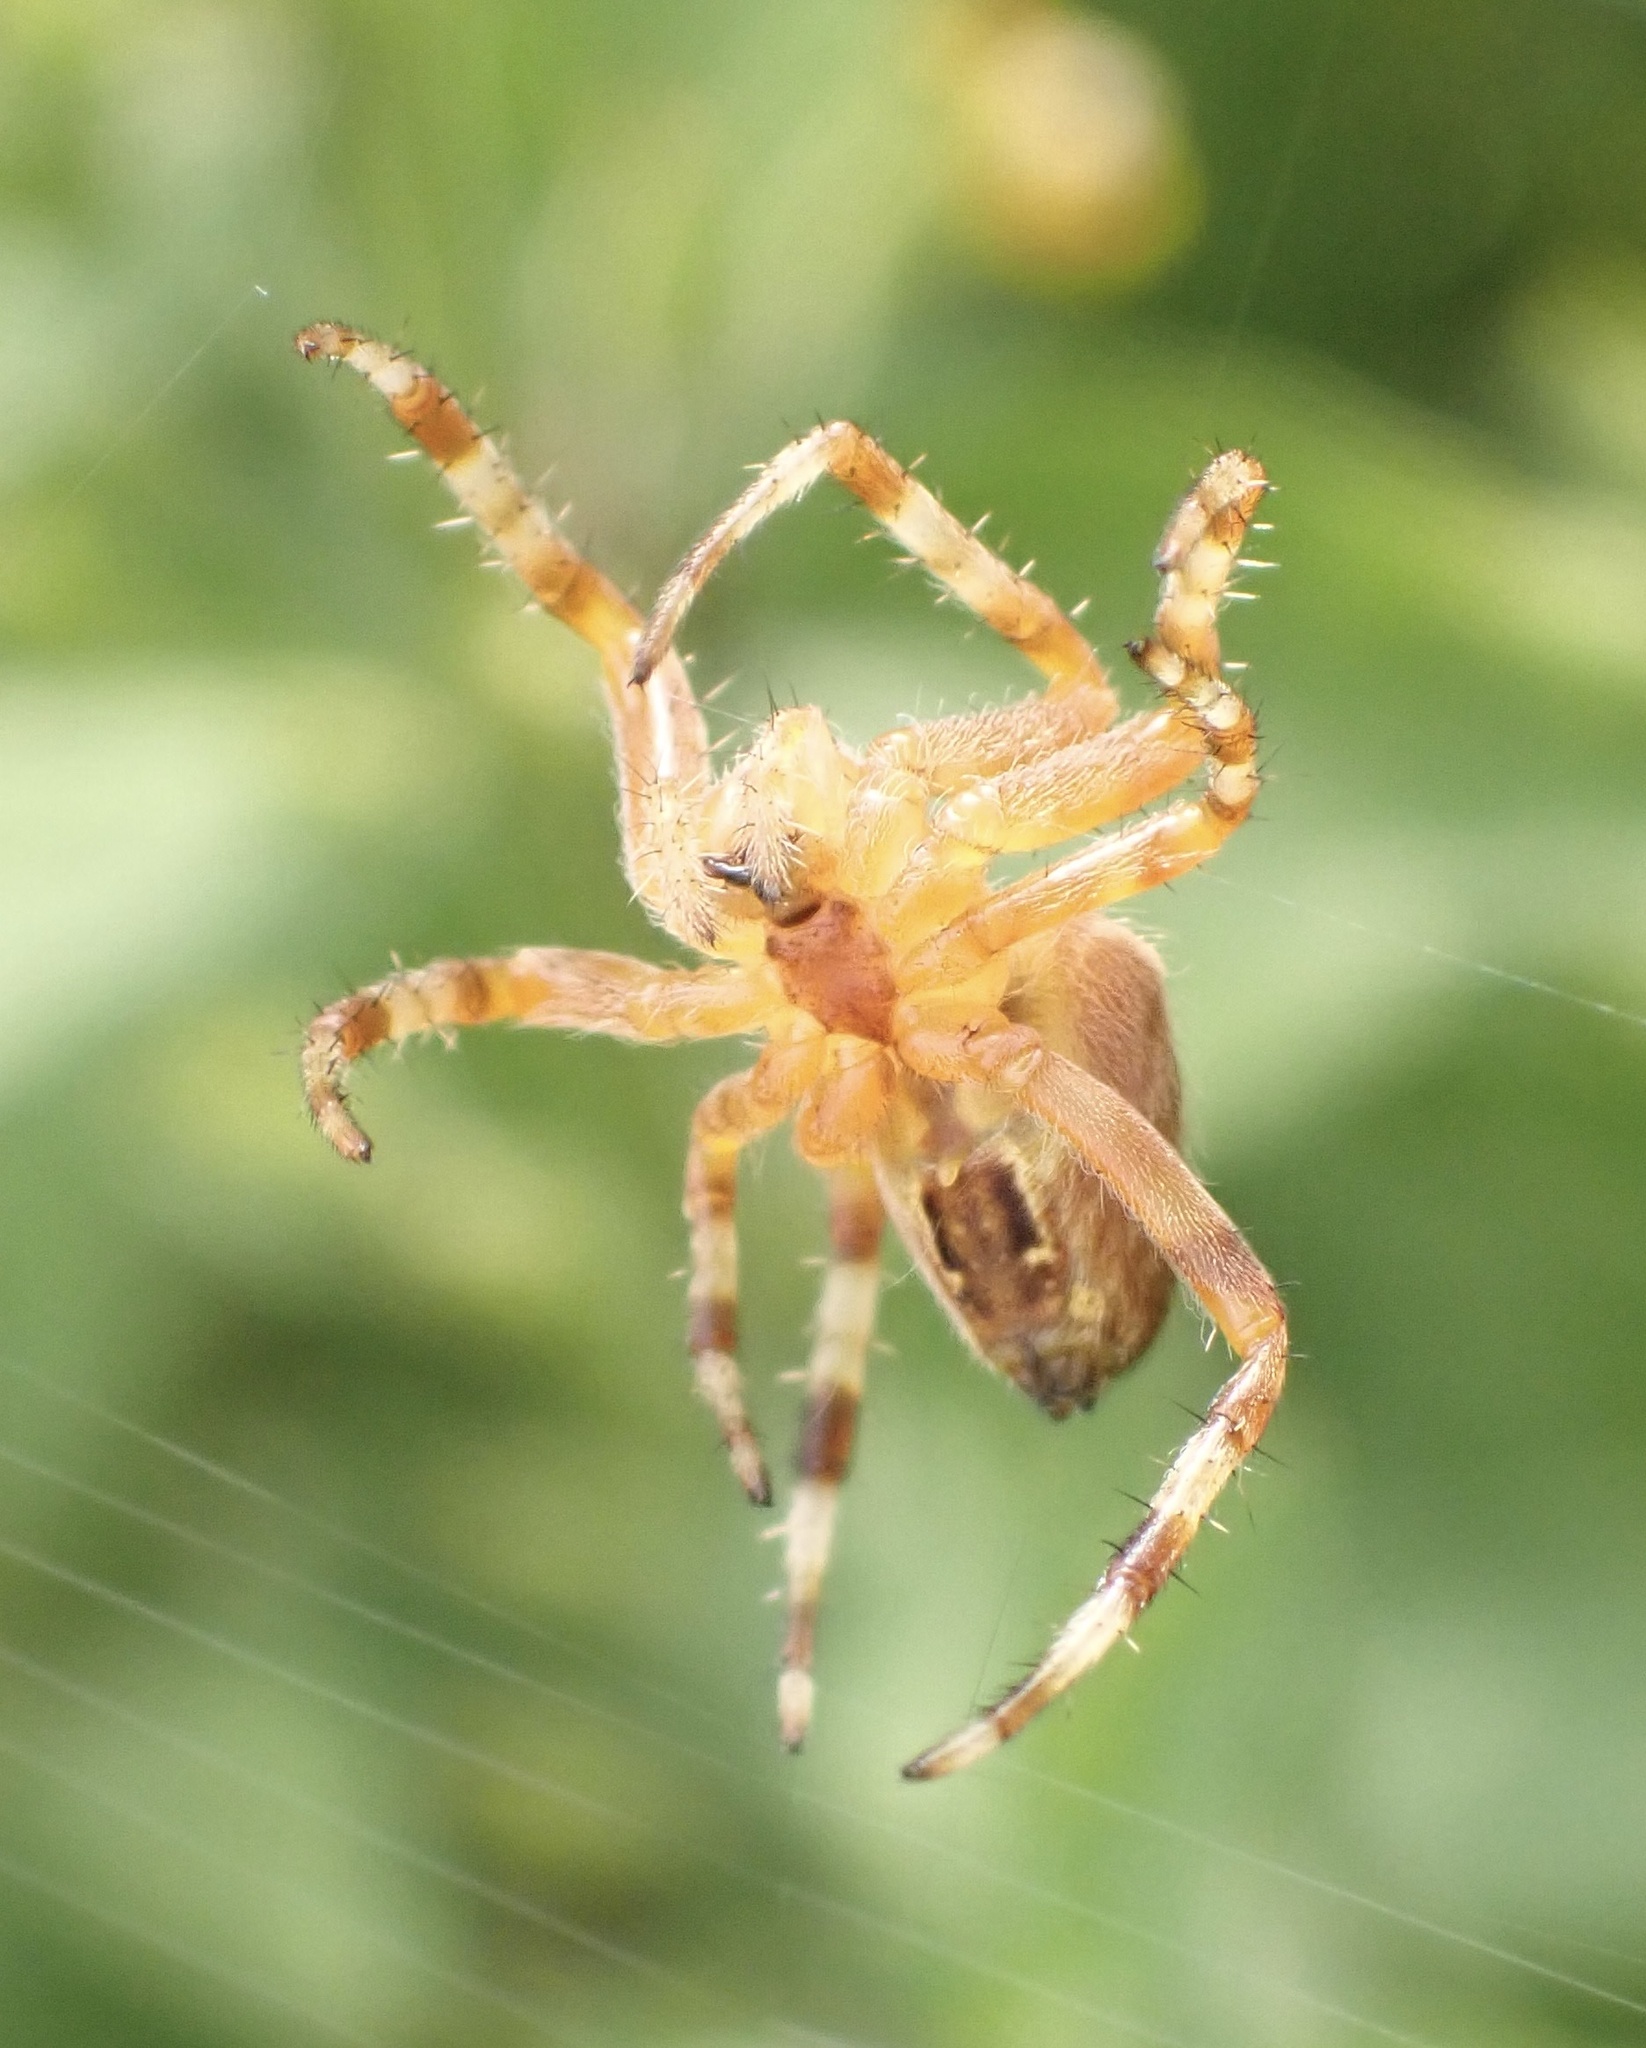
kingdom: Animalia
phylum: Arthropoda
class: Arachnida
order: Araneae
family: Araneidae
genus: Araneus
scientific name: Araneus diadematus
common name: Cross orbweaver
